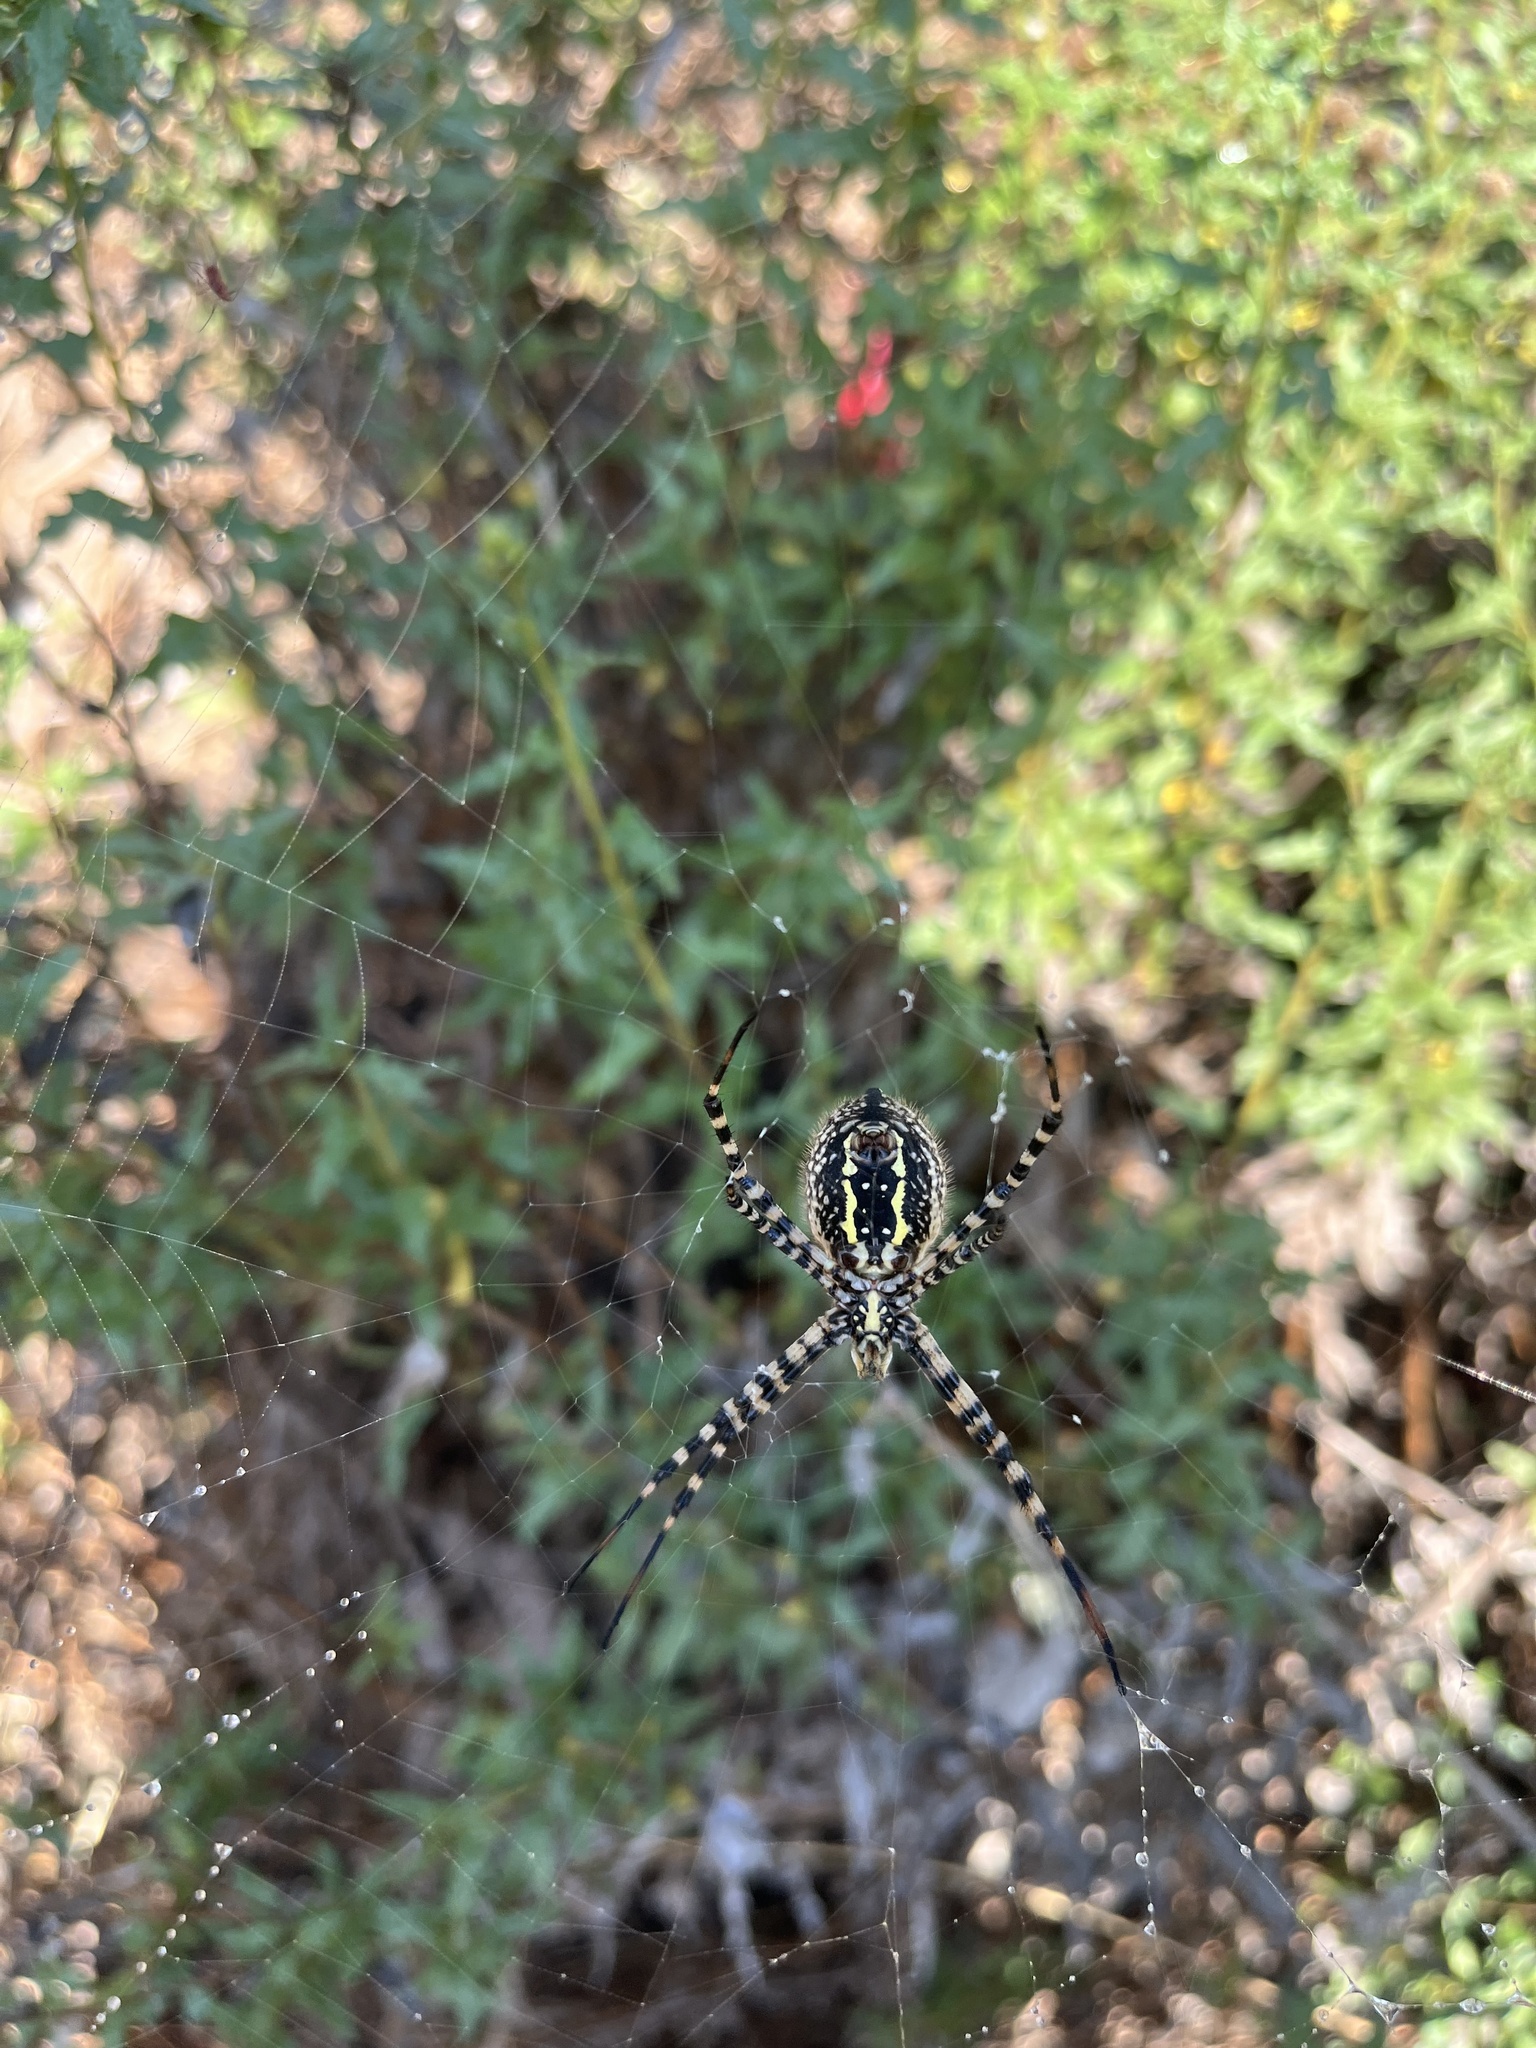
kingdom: Animalia
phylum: Arthropoda
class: Arachnida
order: Araneae
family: Araneidae
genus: Argiope
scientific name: Argiope trifasciata
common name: Banded garden spider
